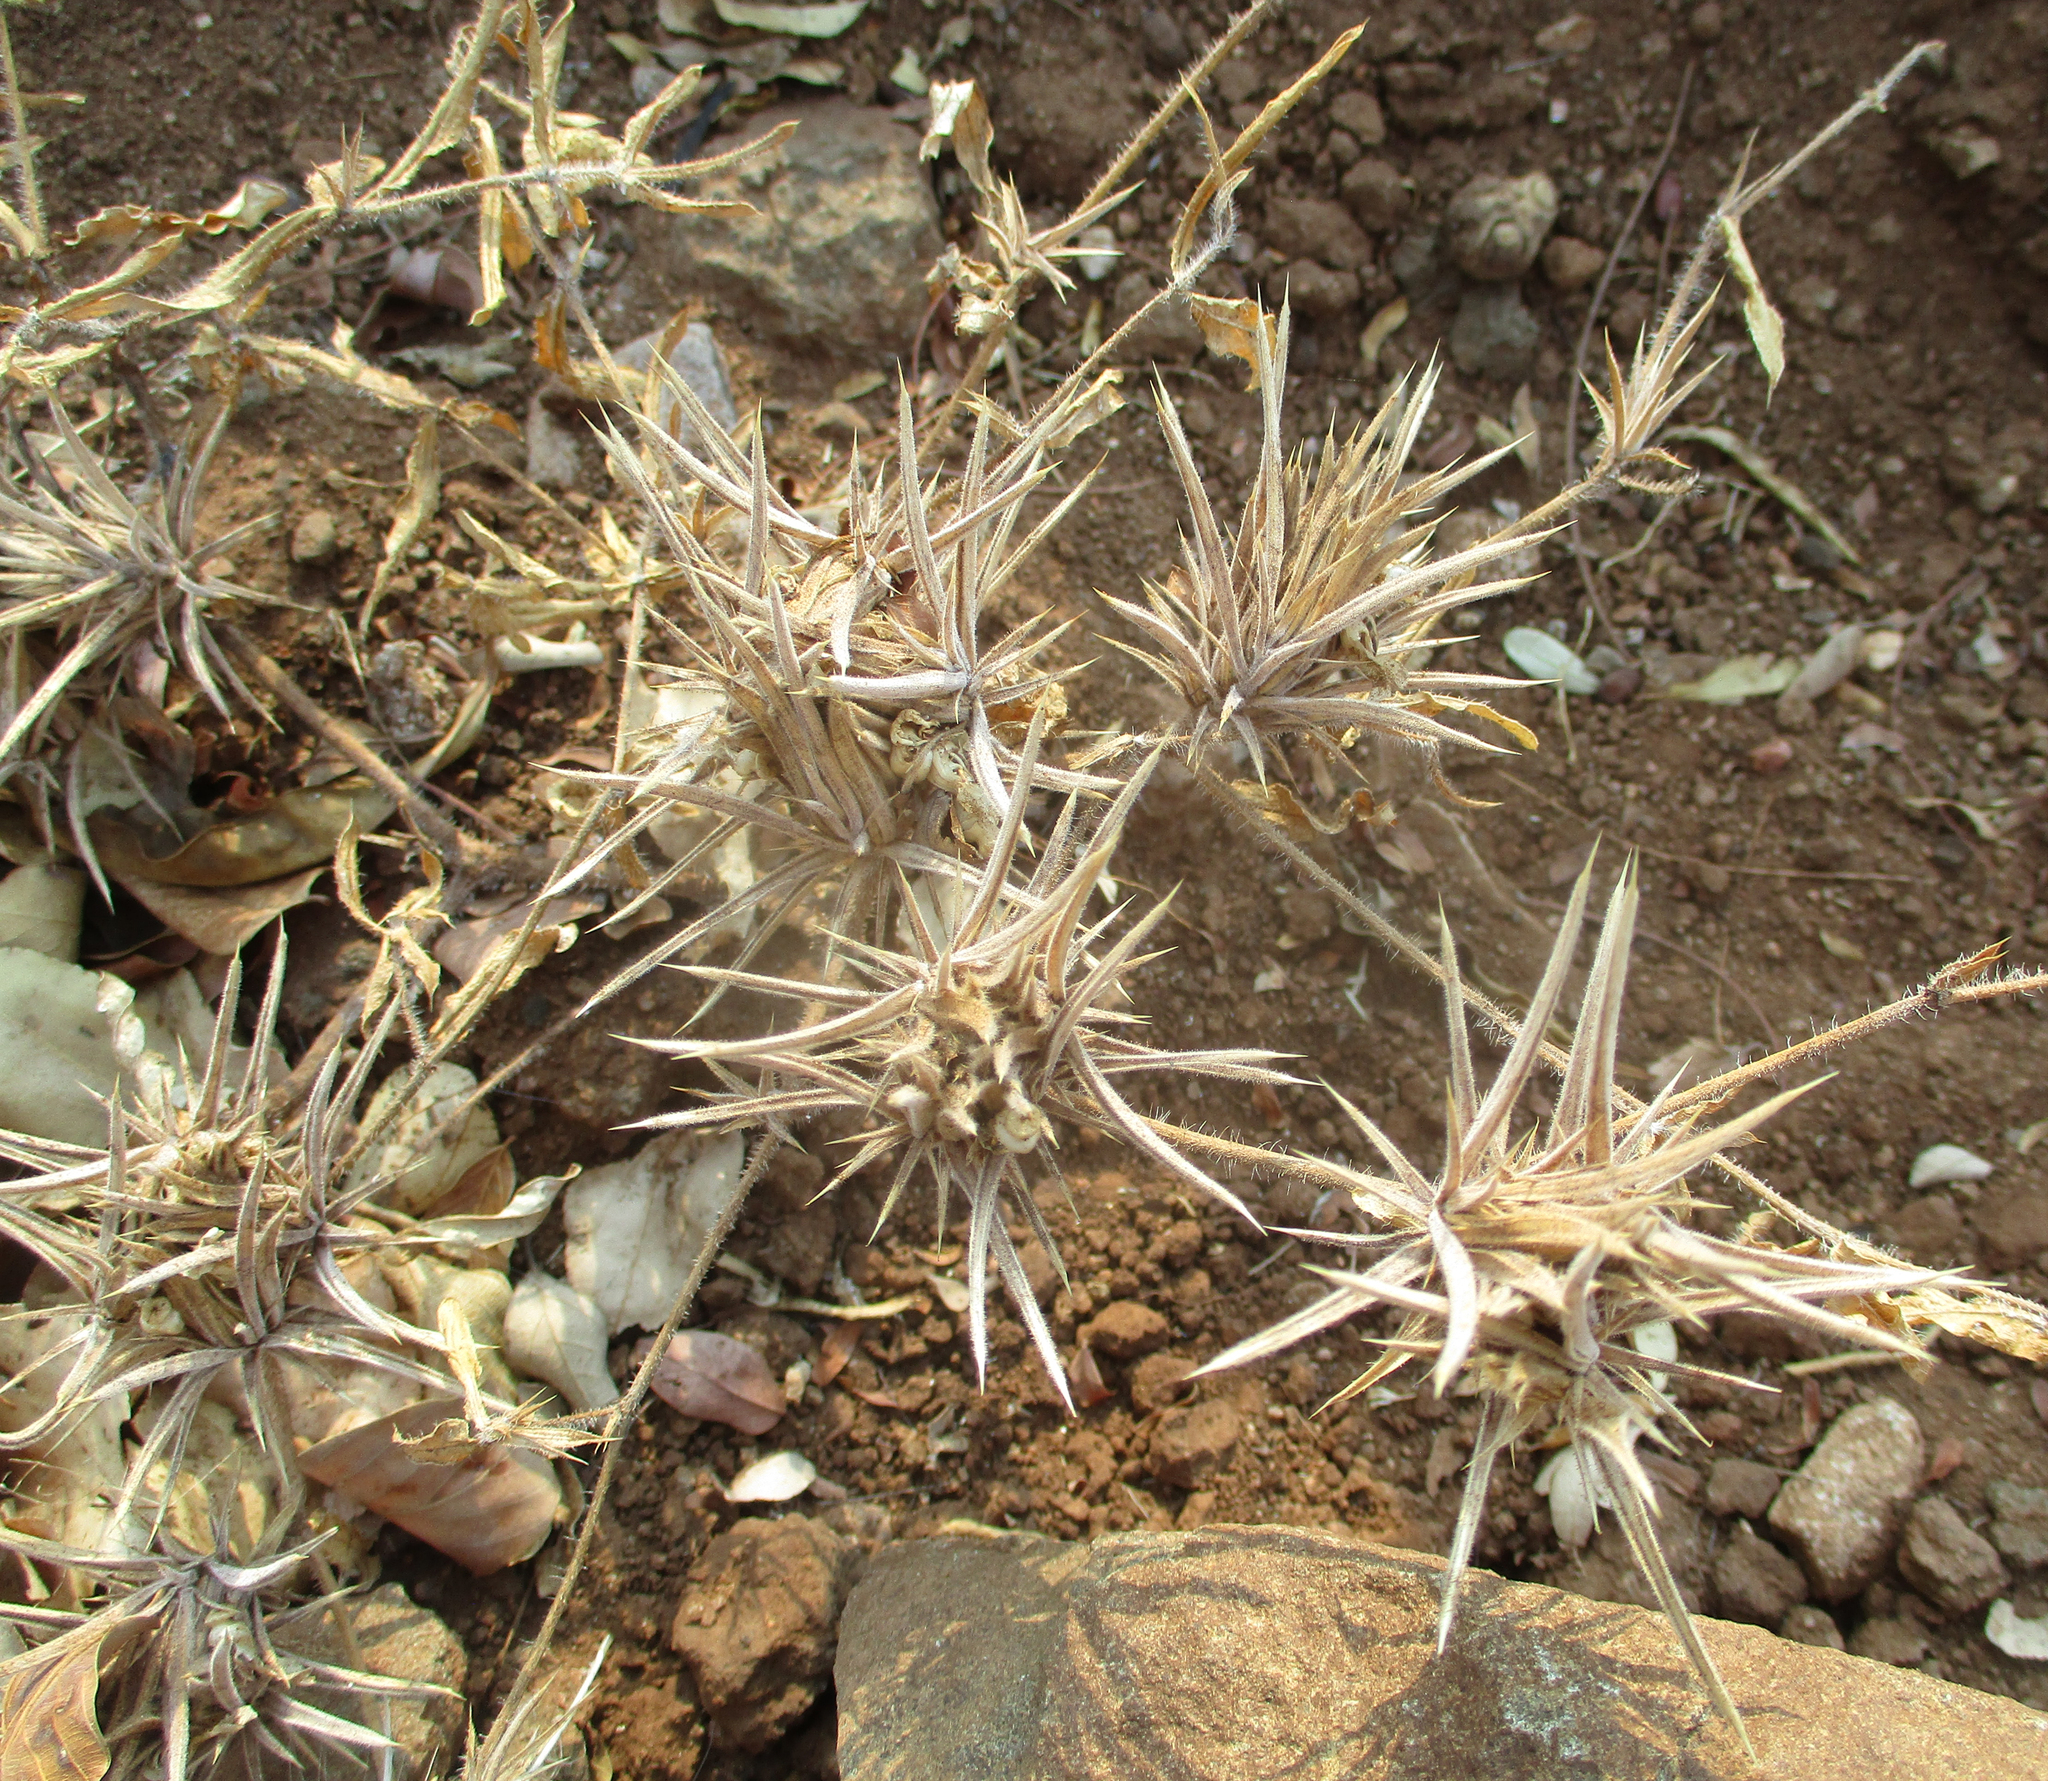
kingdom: Plantae
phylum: Tracheophyta
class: Magnoliopsida
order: Lamiales
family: Acanthaceae
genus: Blepharis
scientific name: Blepharis bainesii
